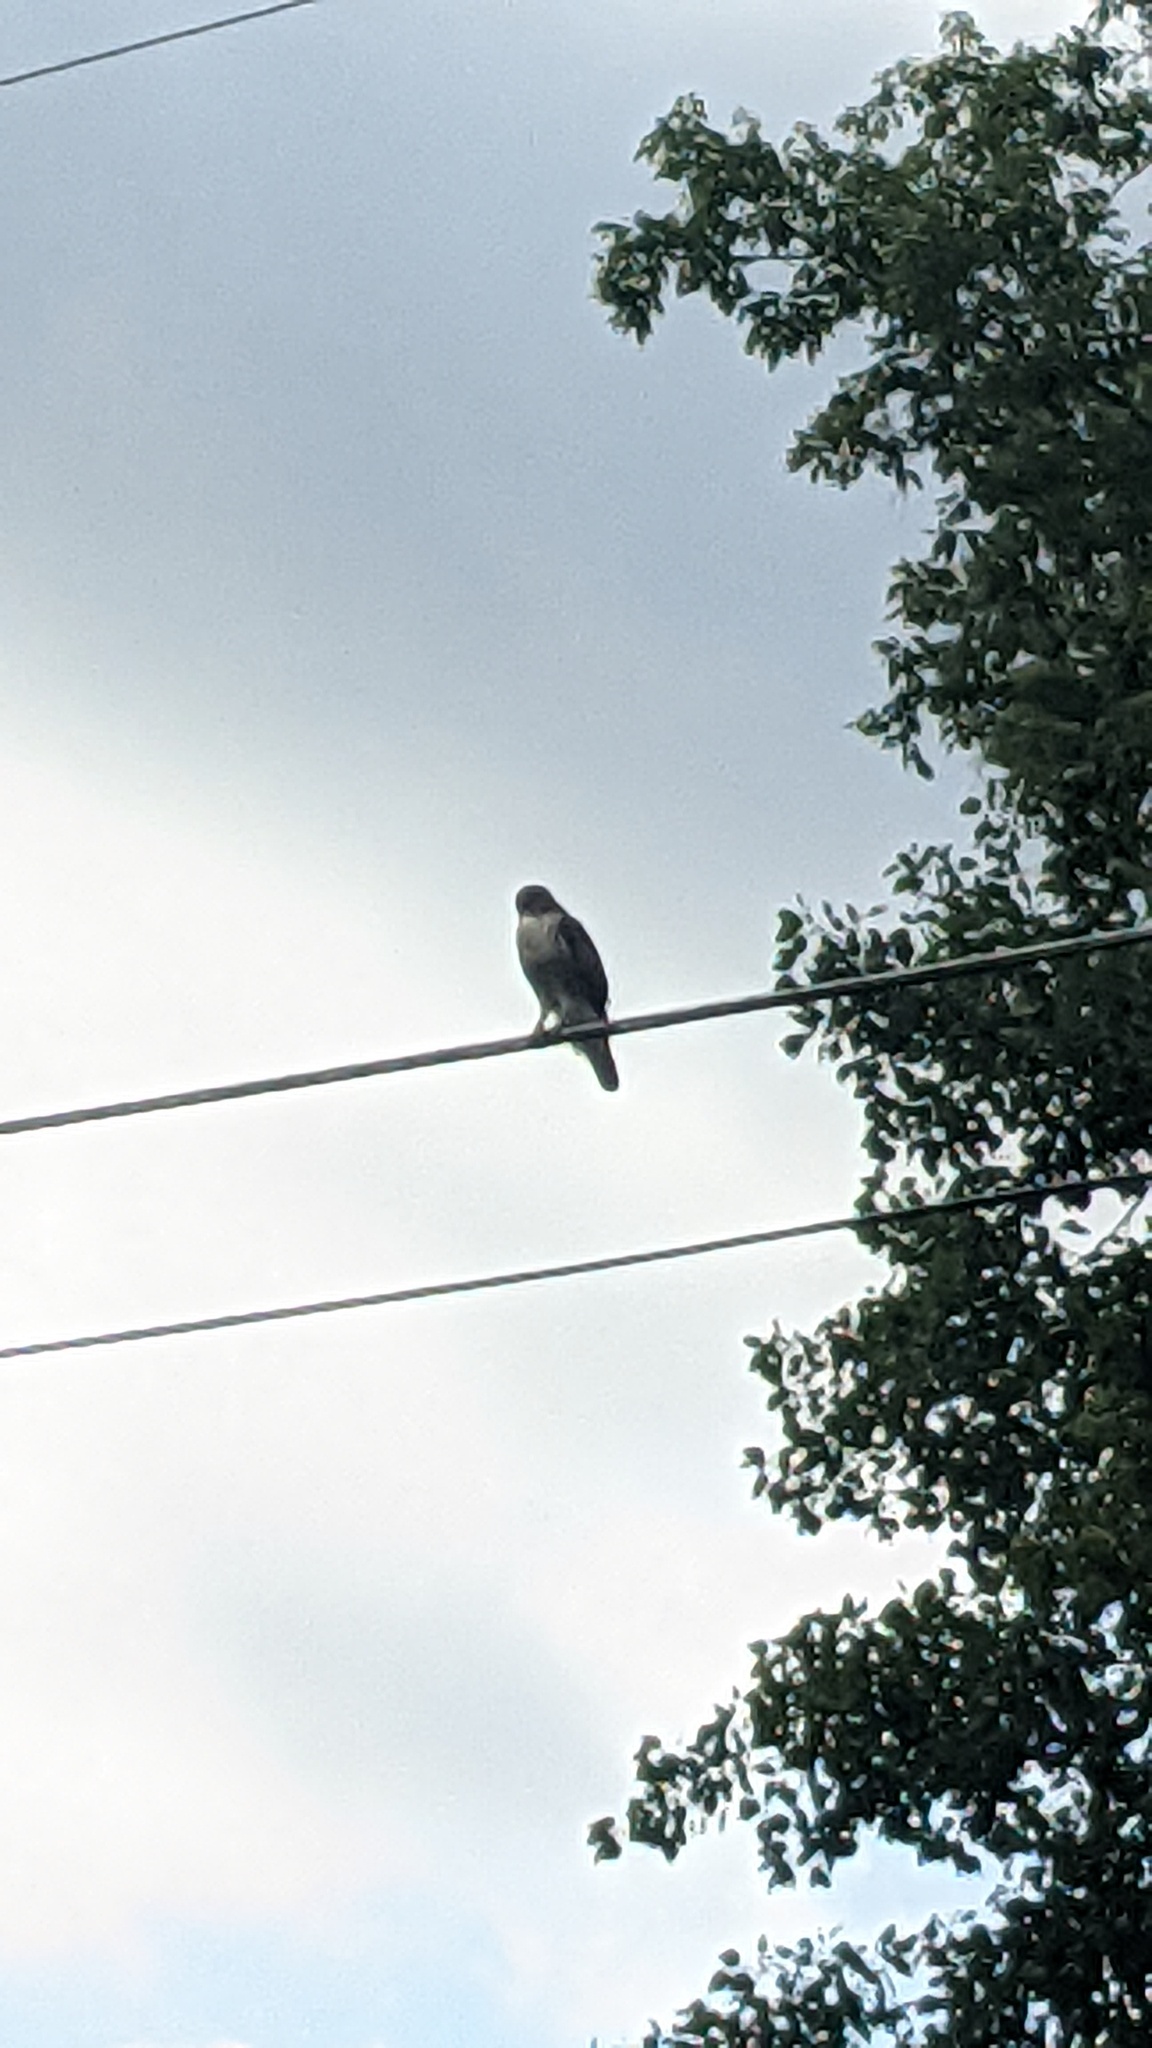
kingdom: Animalia
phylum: Chordata
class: Aves
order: Accipitriformes
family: Accipitridae
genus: Buteo
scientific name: Buteo jamaicensis
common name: Red-tailed hawk
